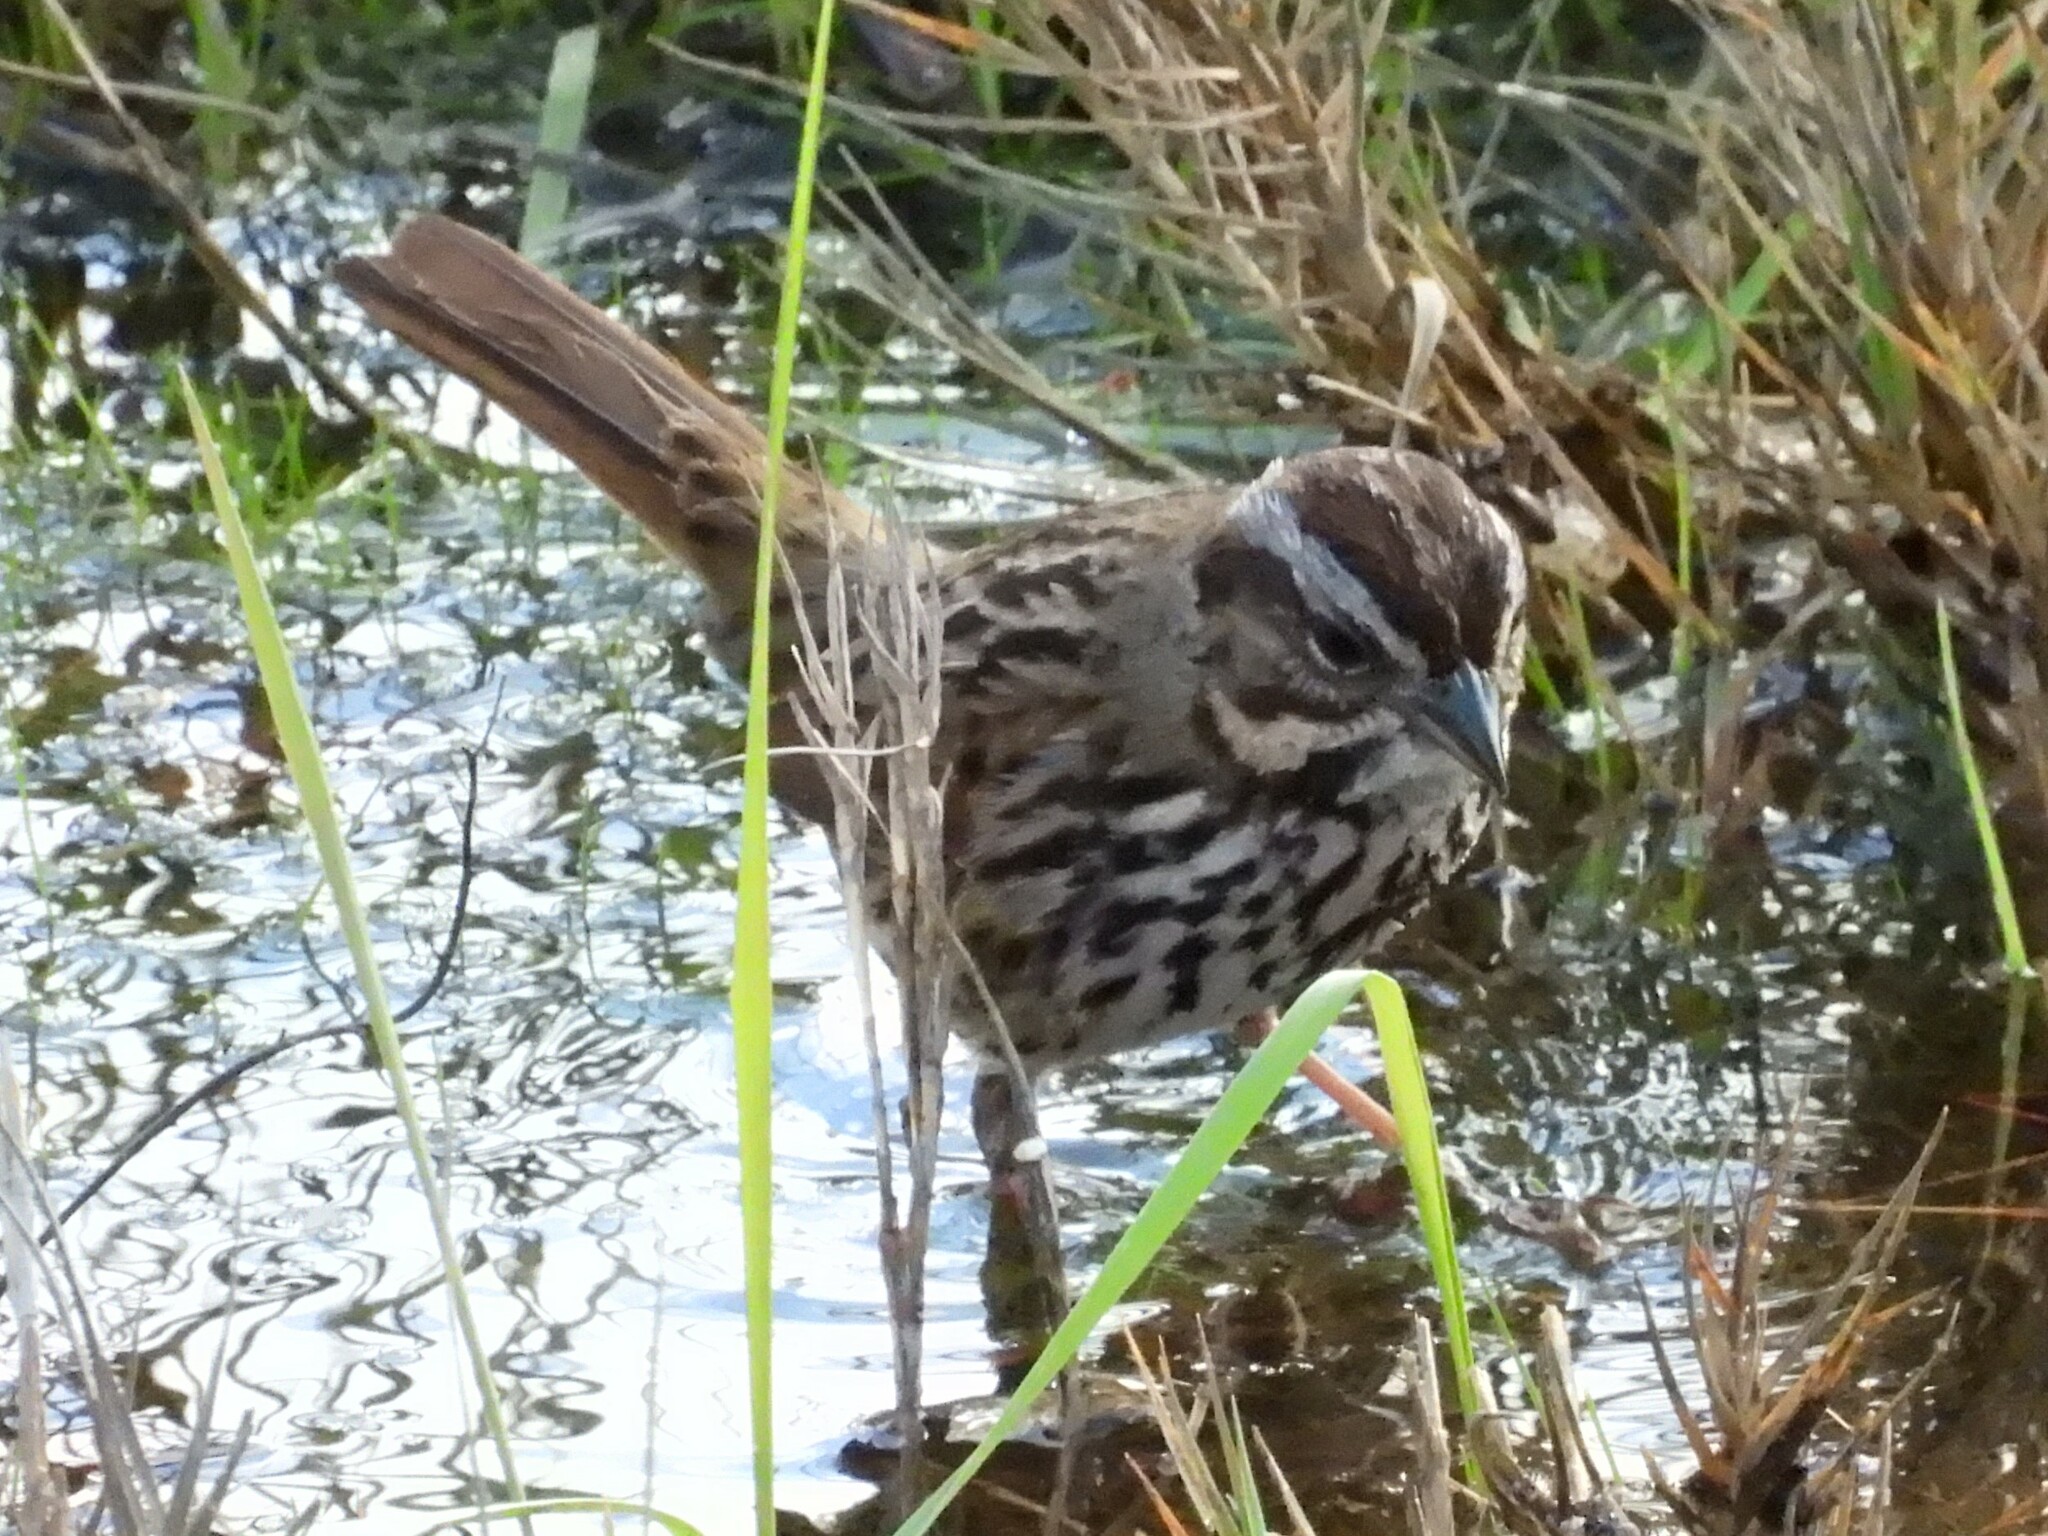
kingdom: Animalia
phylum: Chordata
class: Aves
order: Passeriformes
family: Passerellidae
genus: Melospiza
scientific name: Melospiza melodia
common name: Song sparrow
